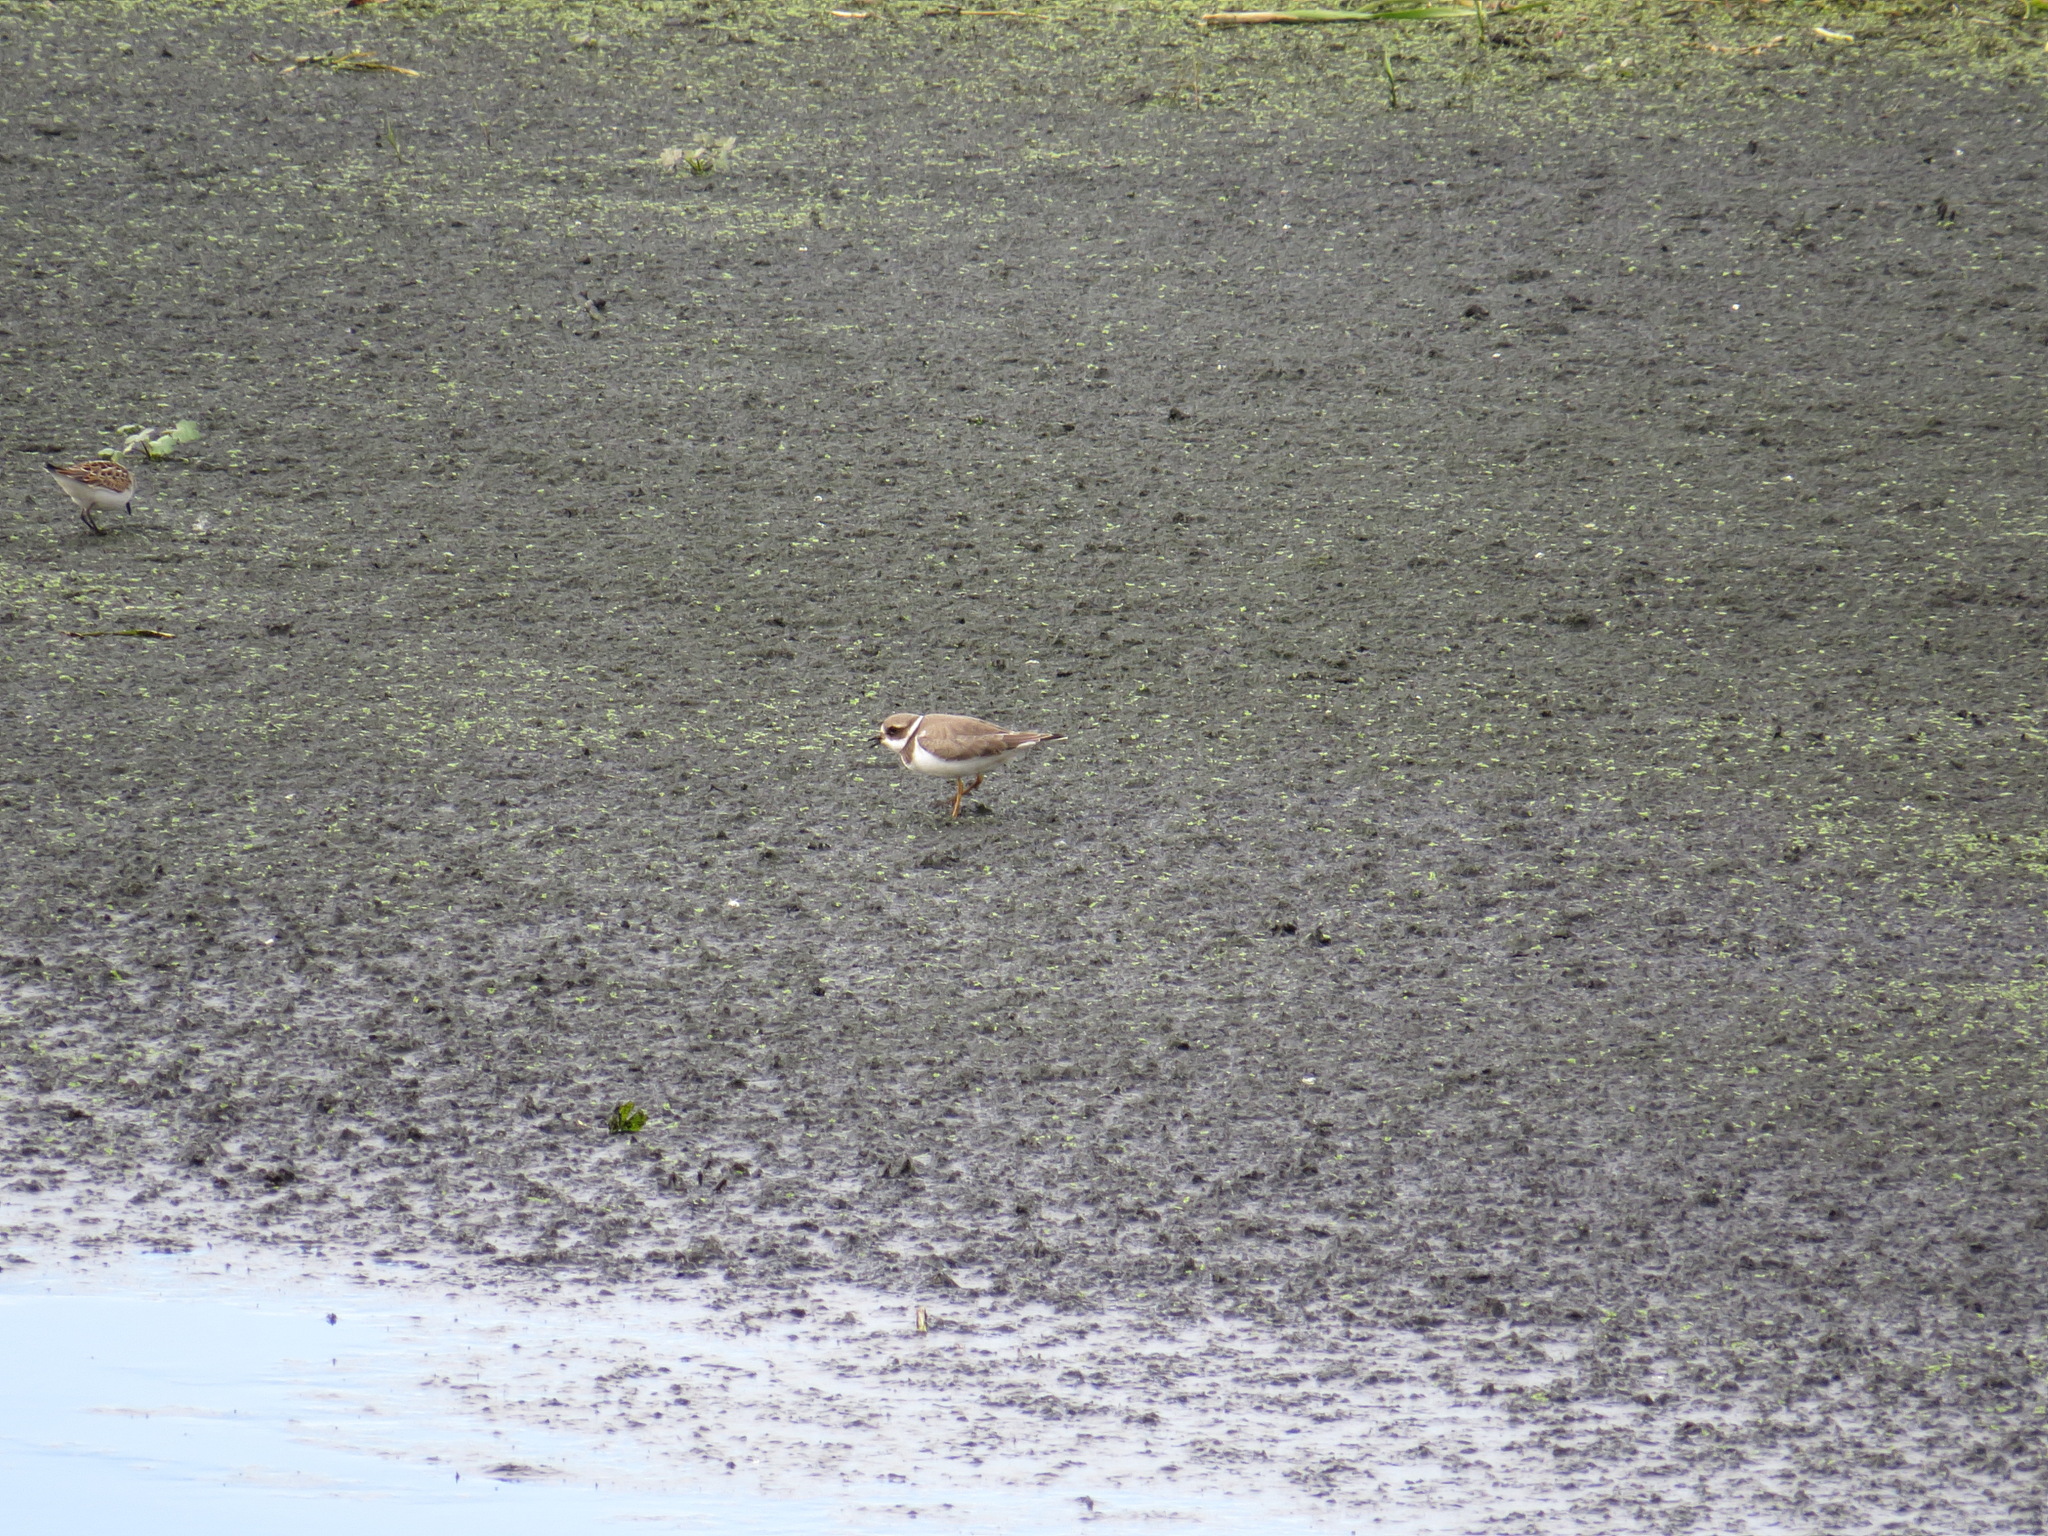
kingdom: Animalia
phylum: Chordata
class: Aves
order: Charadriiformes
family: Charadriidae
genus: Charadrius
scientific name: Charadrius hiaticula
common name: Common ringed plover
